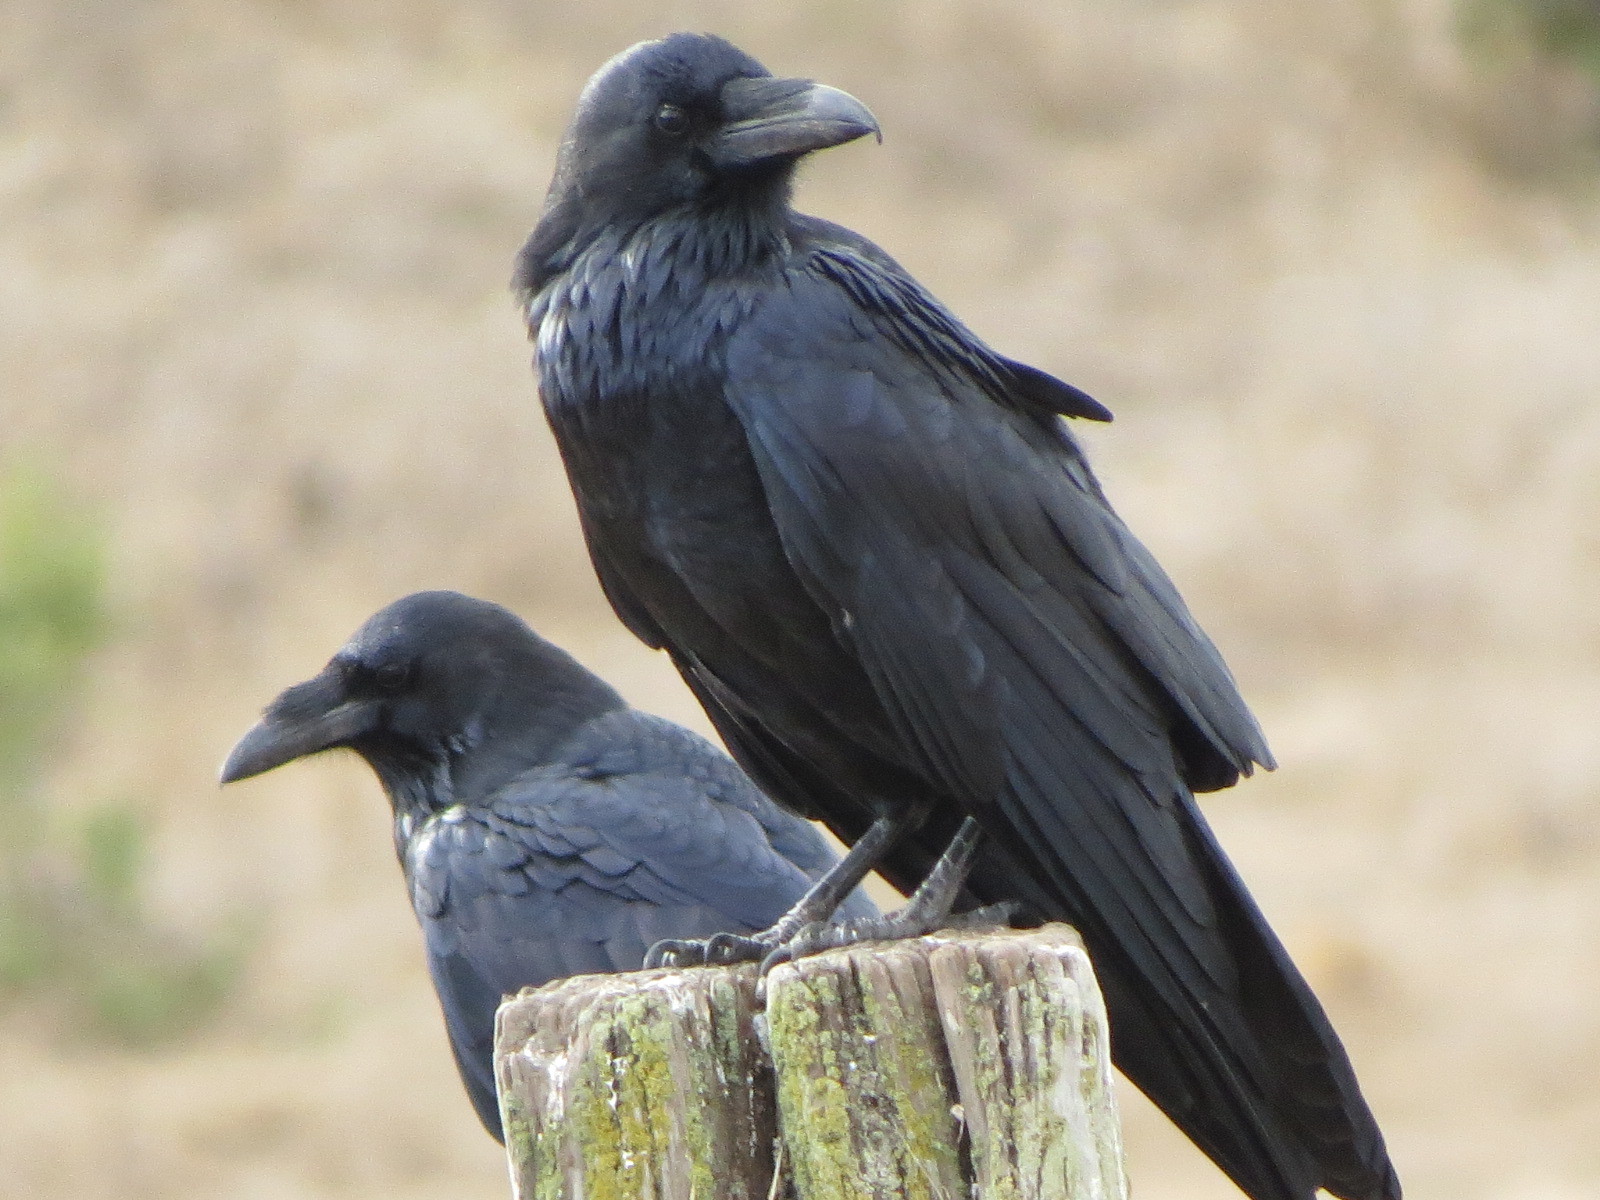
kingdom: Animalia
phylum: Chordata
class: Aves
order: Passeriformes
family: Corvidae
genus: Corvus
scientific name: Corvus corax
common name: Common raven
